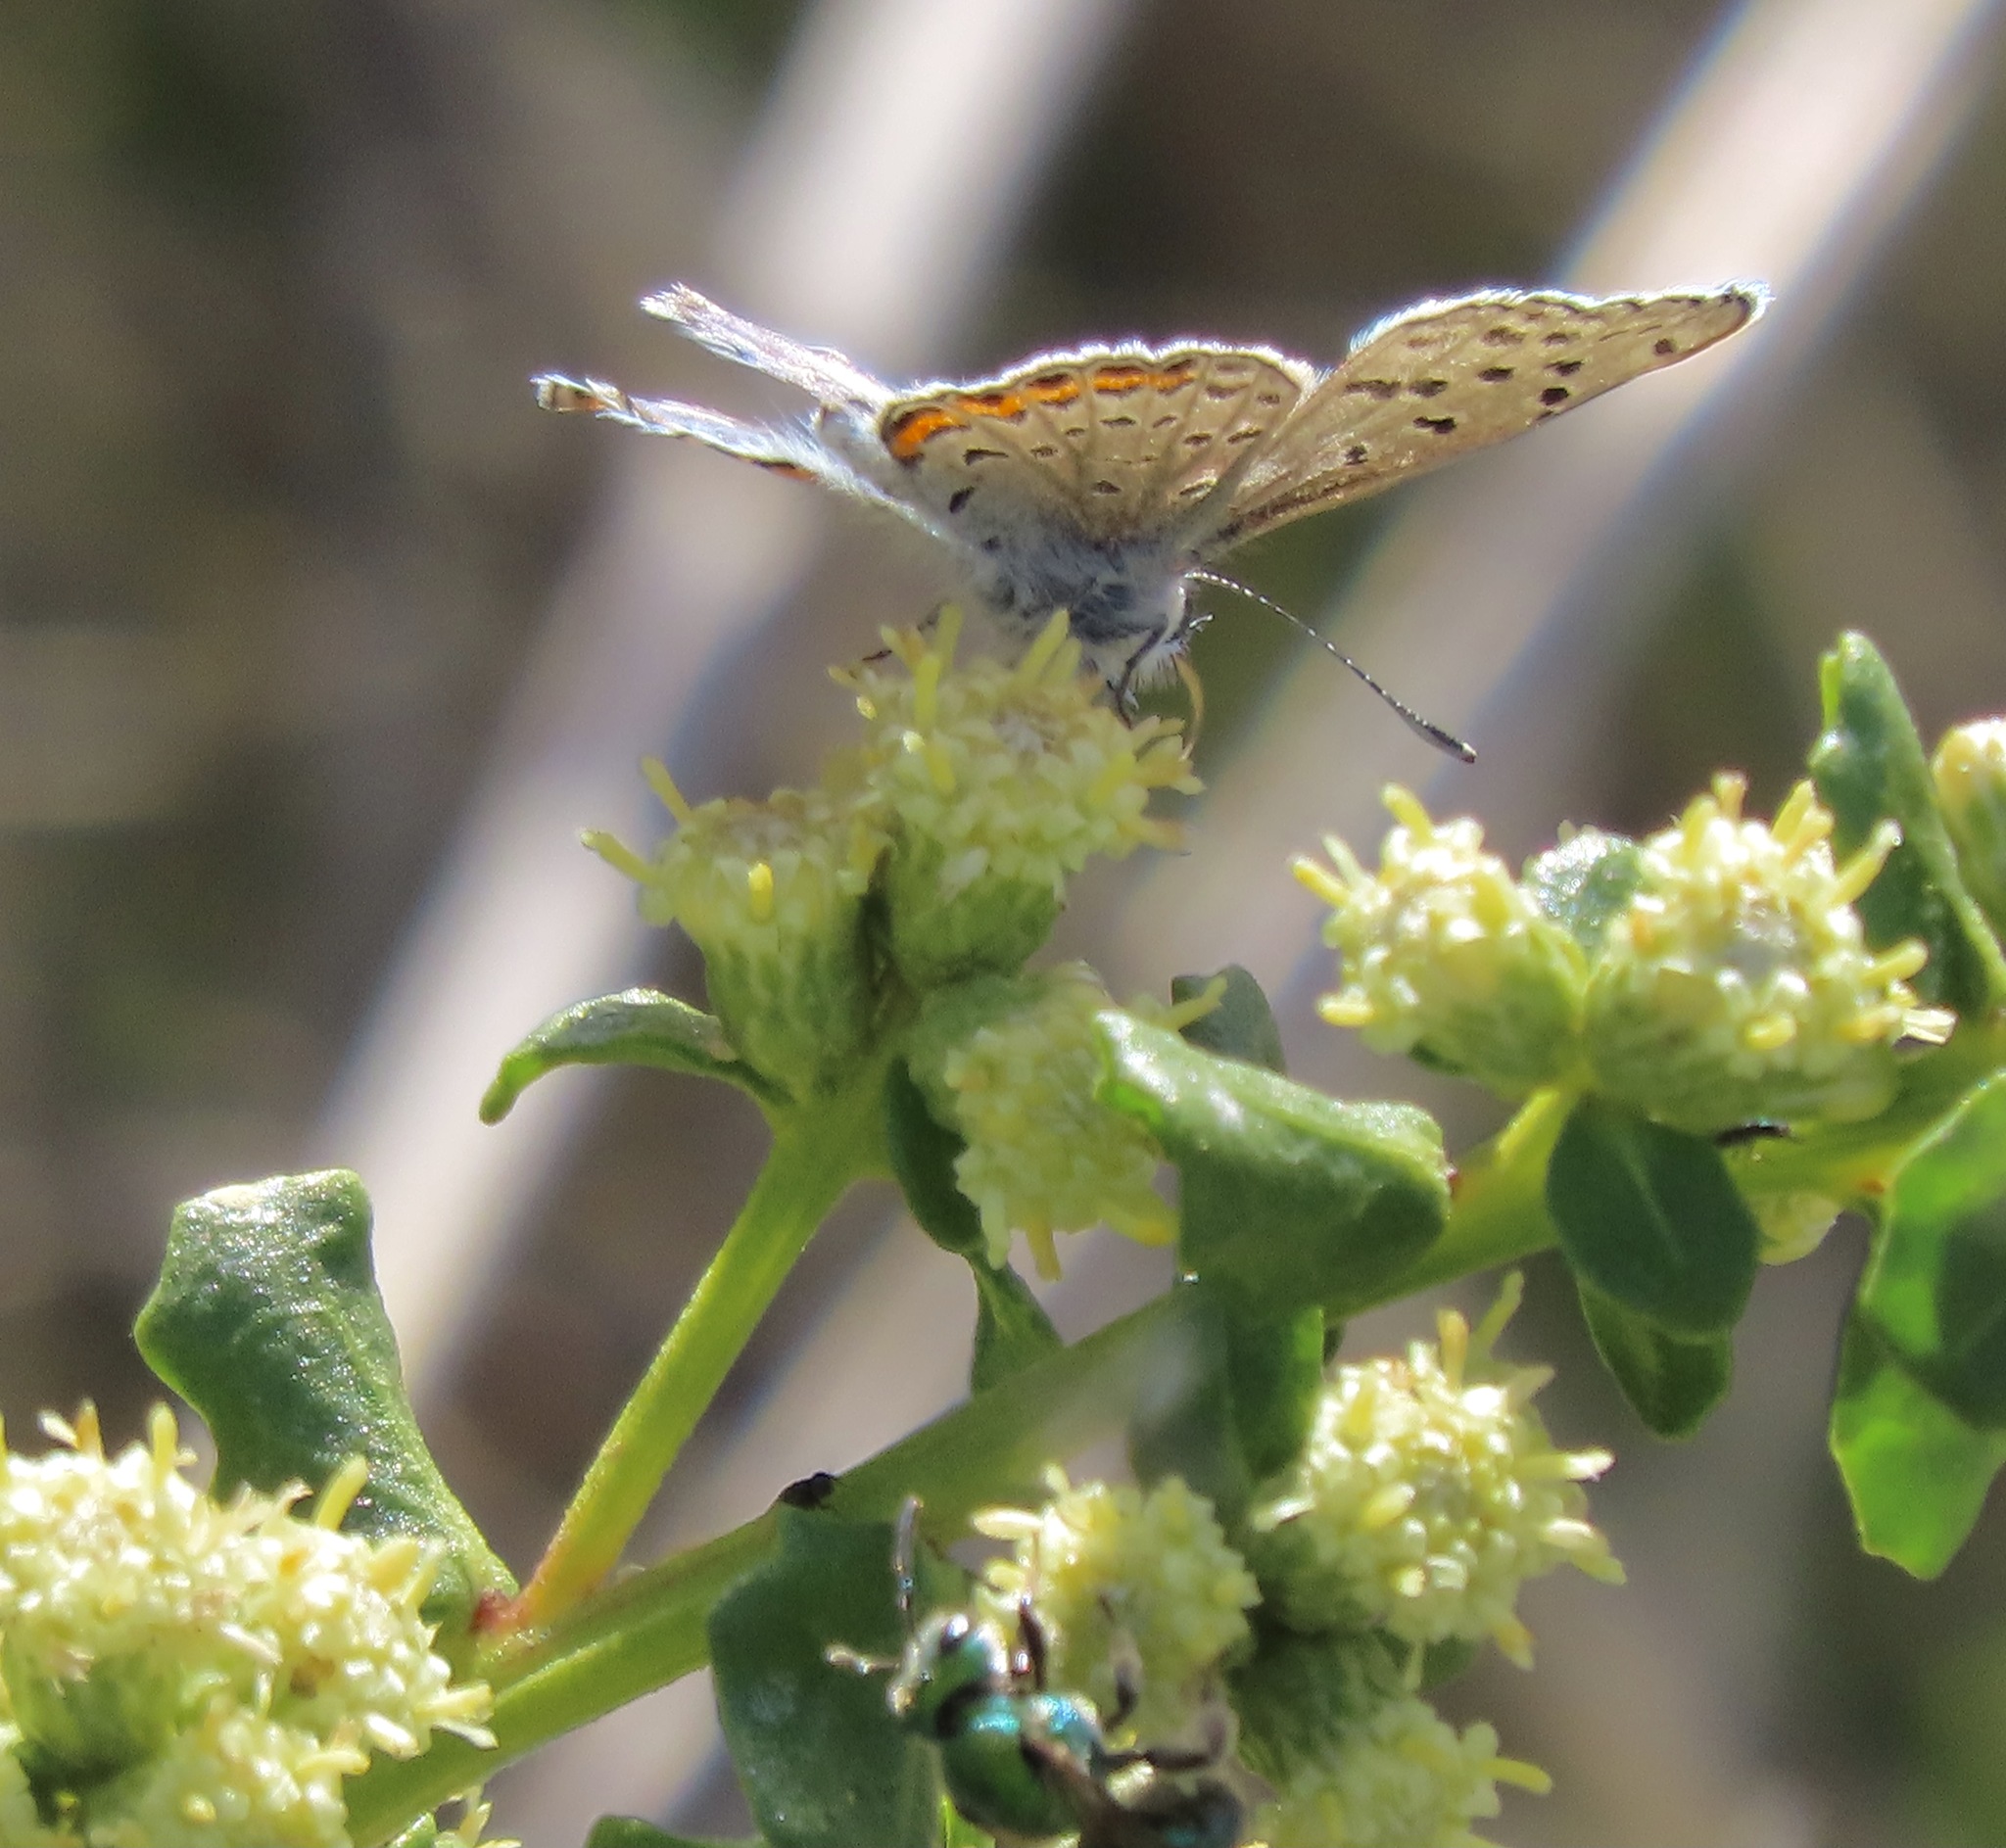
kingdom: Animalia
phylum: Arthropoda
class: Insecta
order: Lepidoptera
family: Lycaenidae
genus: Icaricia
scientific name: Icaricia acmon
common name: Acmon blue
